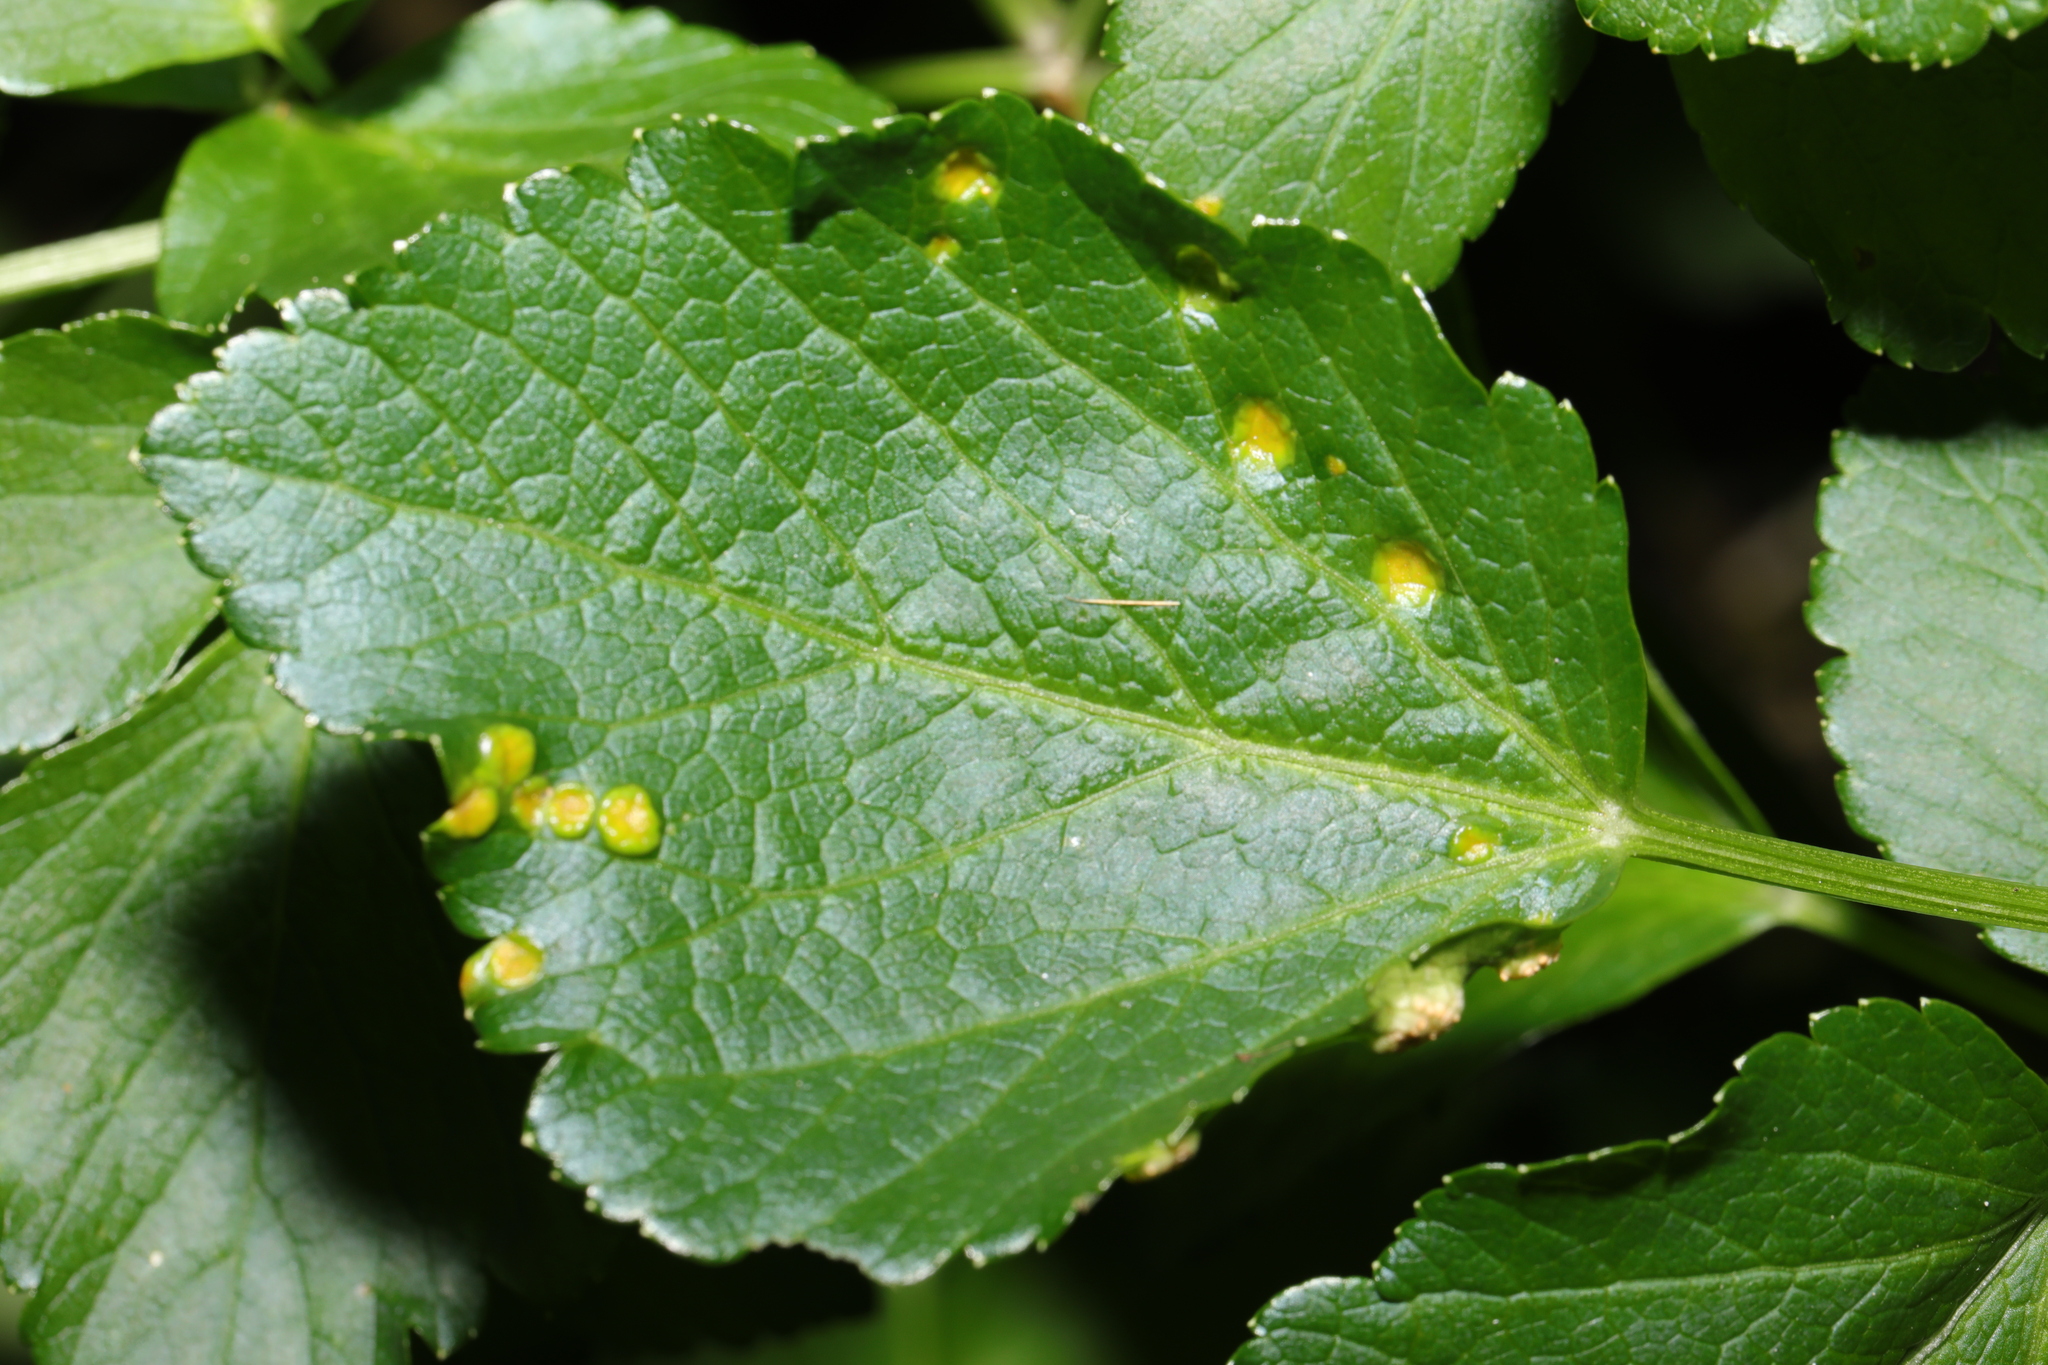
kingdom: Fungi
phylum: Basidiomycota
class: Pucciniomycetes
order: Pucciniales
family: Pucciniaceae
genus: Puccinia
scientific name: Puccinia smyrnii
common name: Alexanders rust
